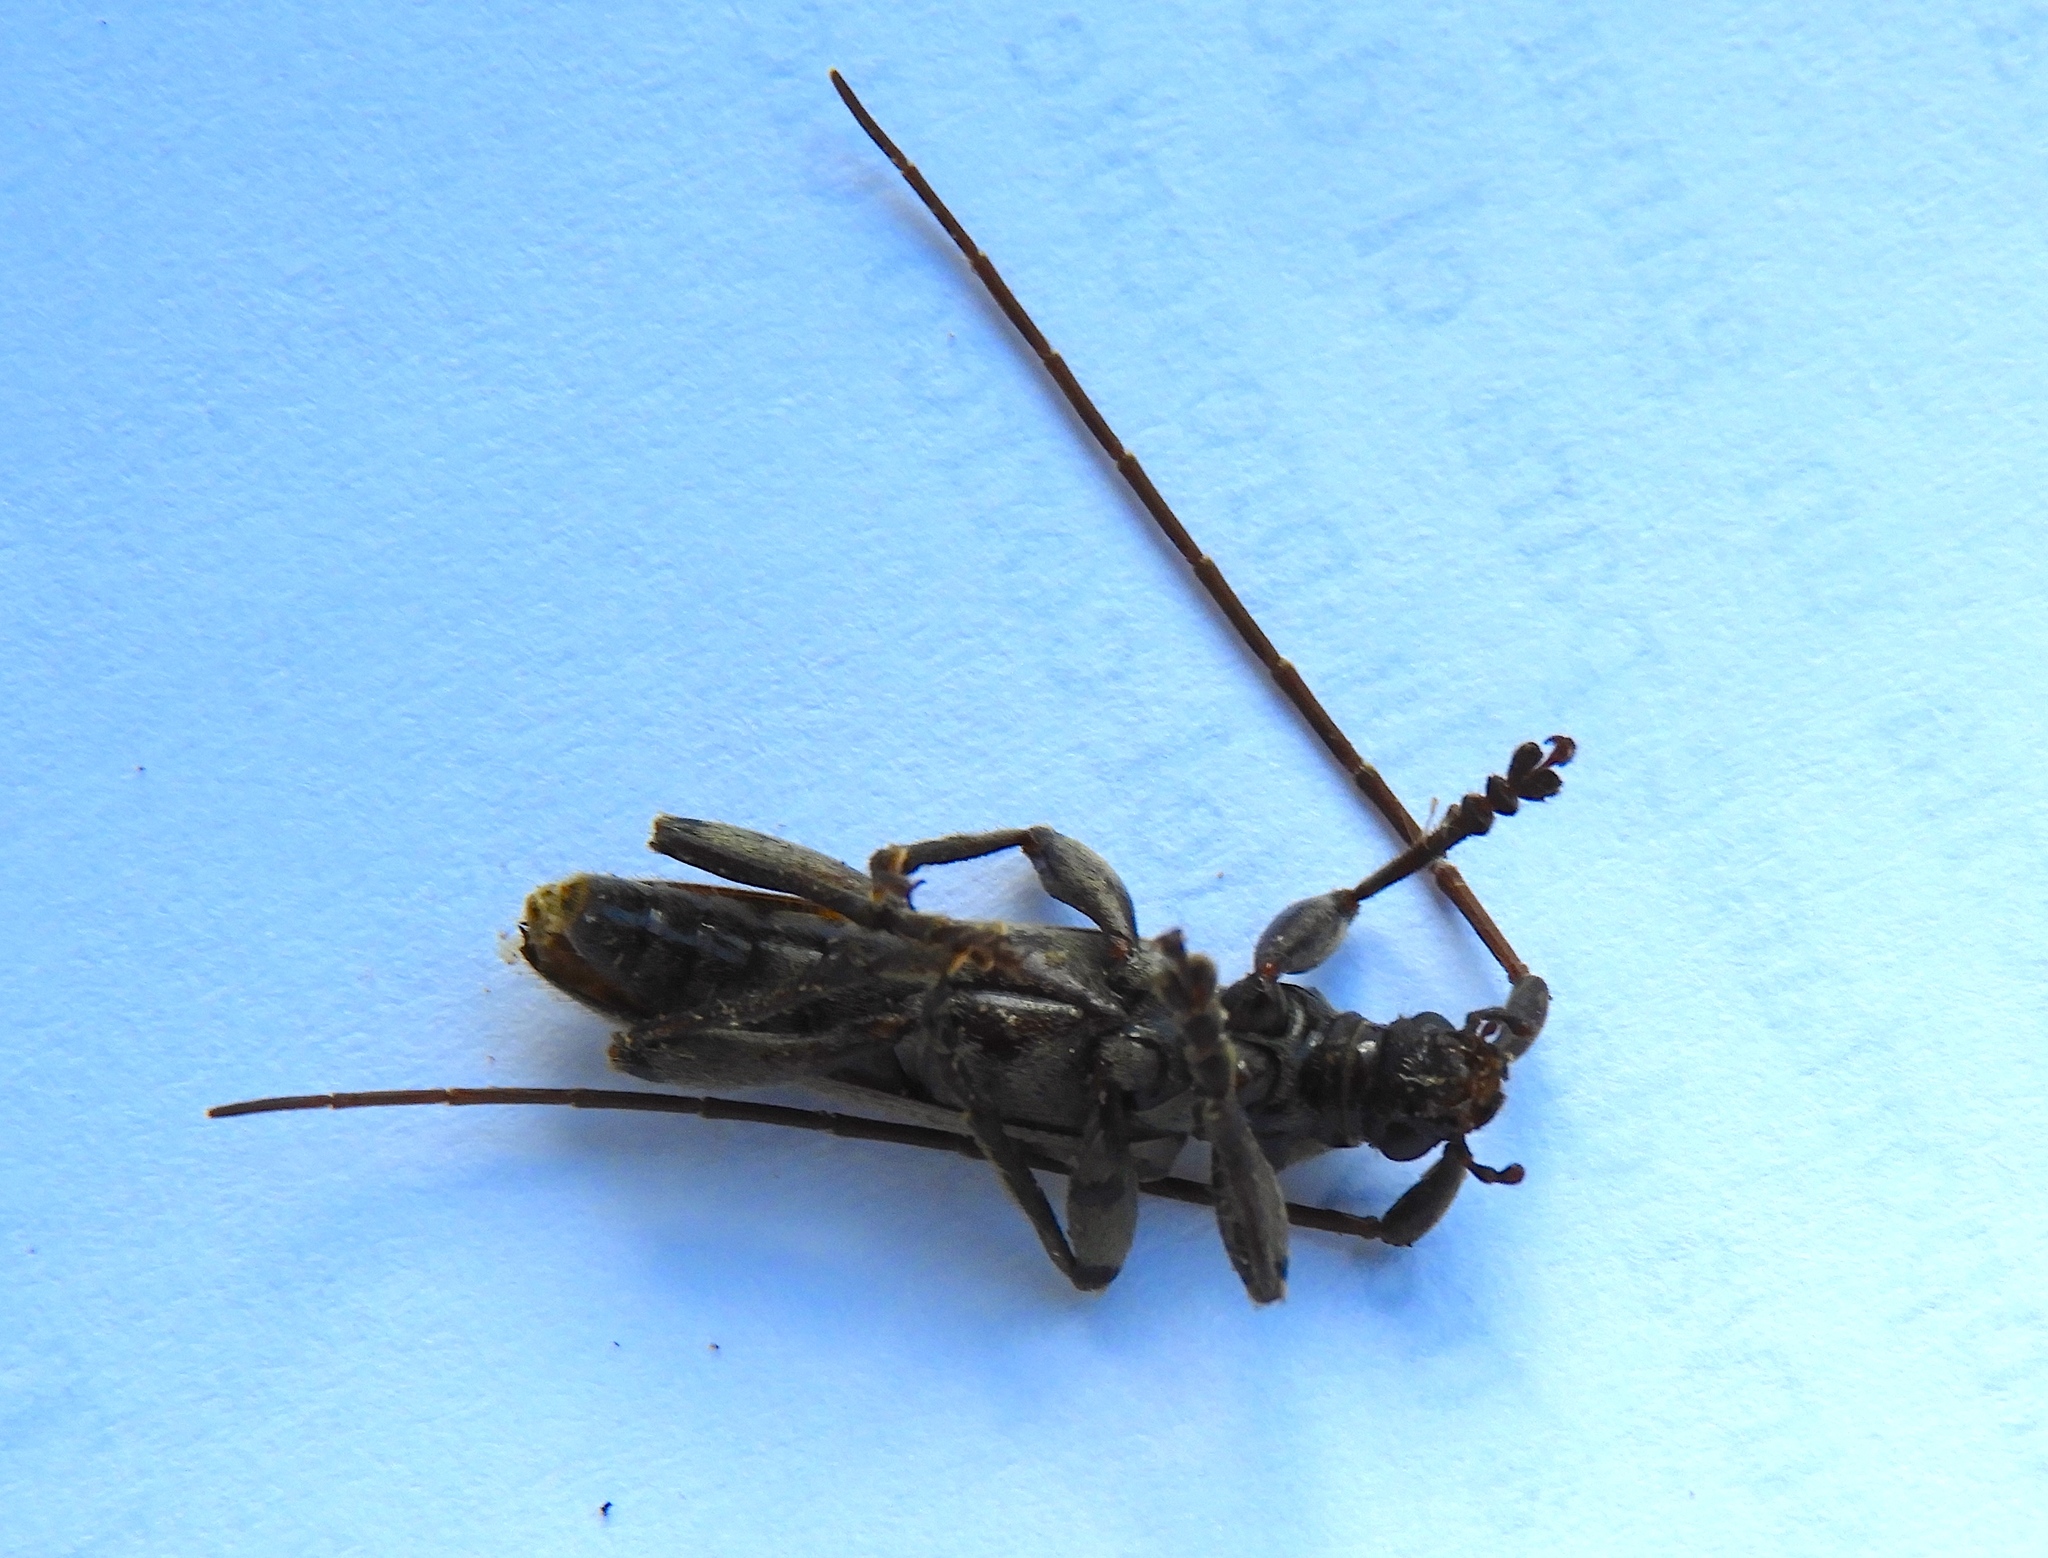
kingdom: Animalia
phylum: Arthropoda
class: Insecta
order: Coleoptera
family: Cerambycidae
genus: Elytrimitatrix
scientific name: Elytrimitatrix
